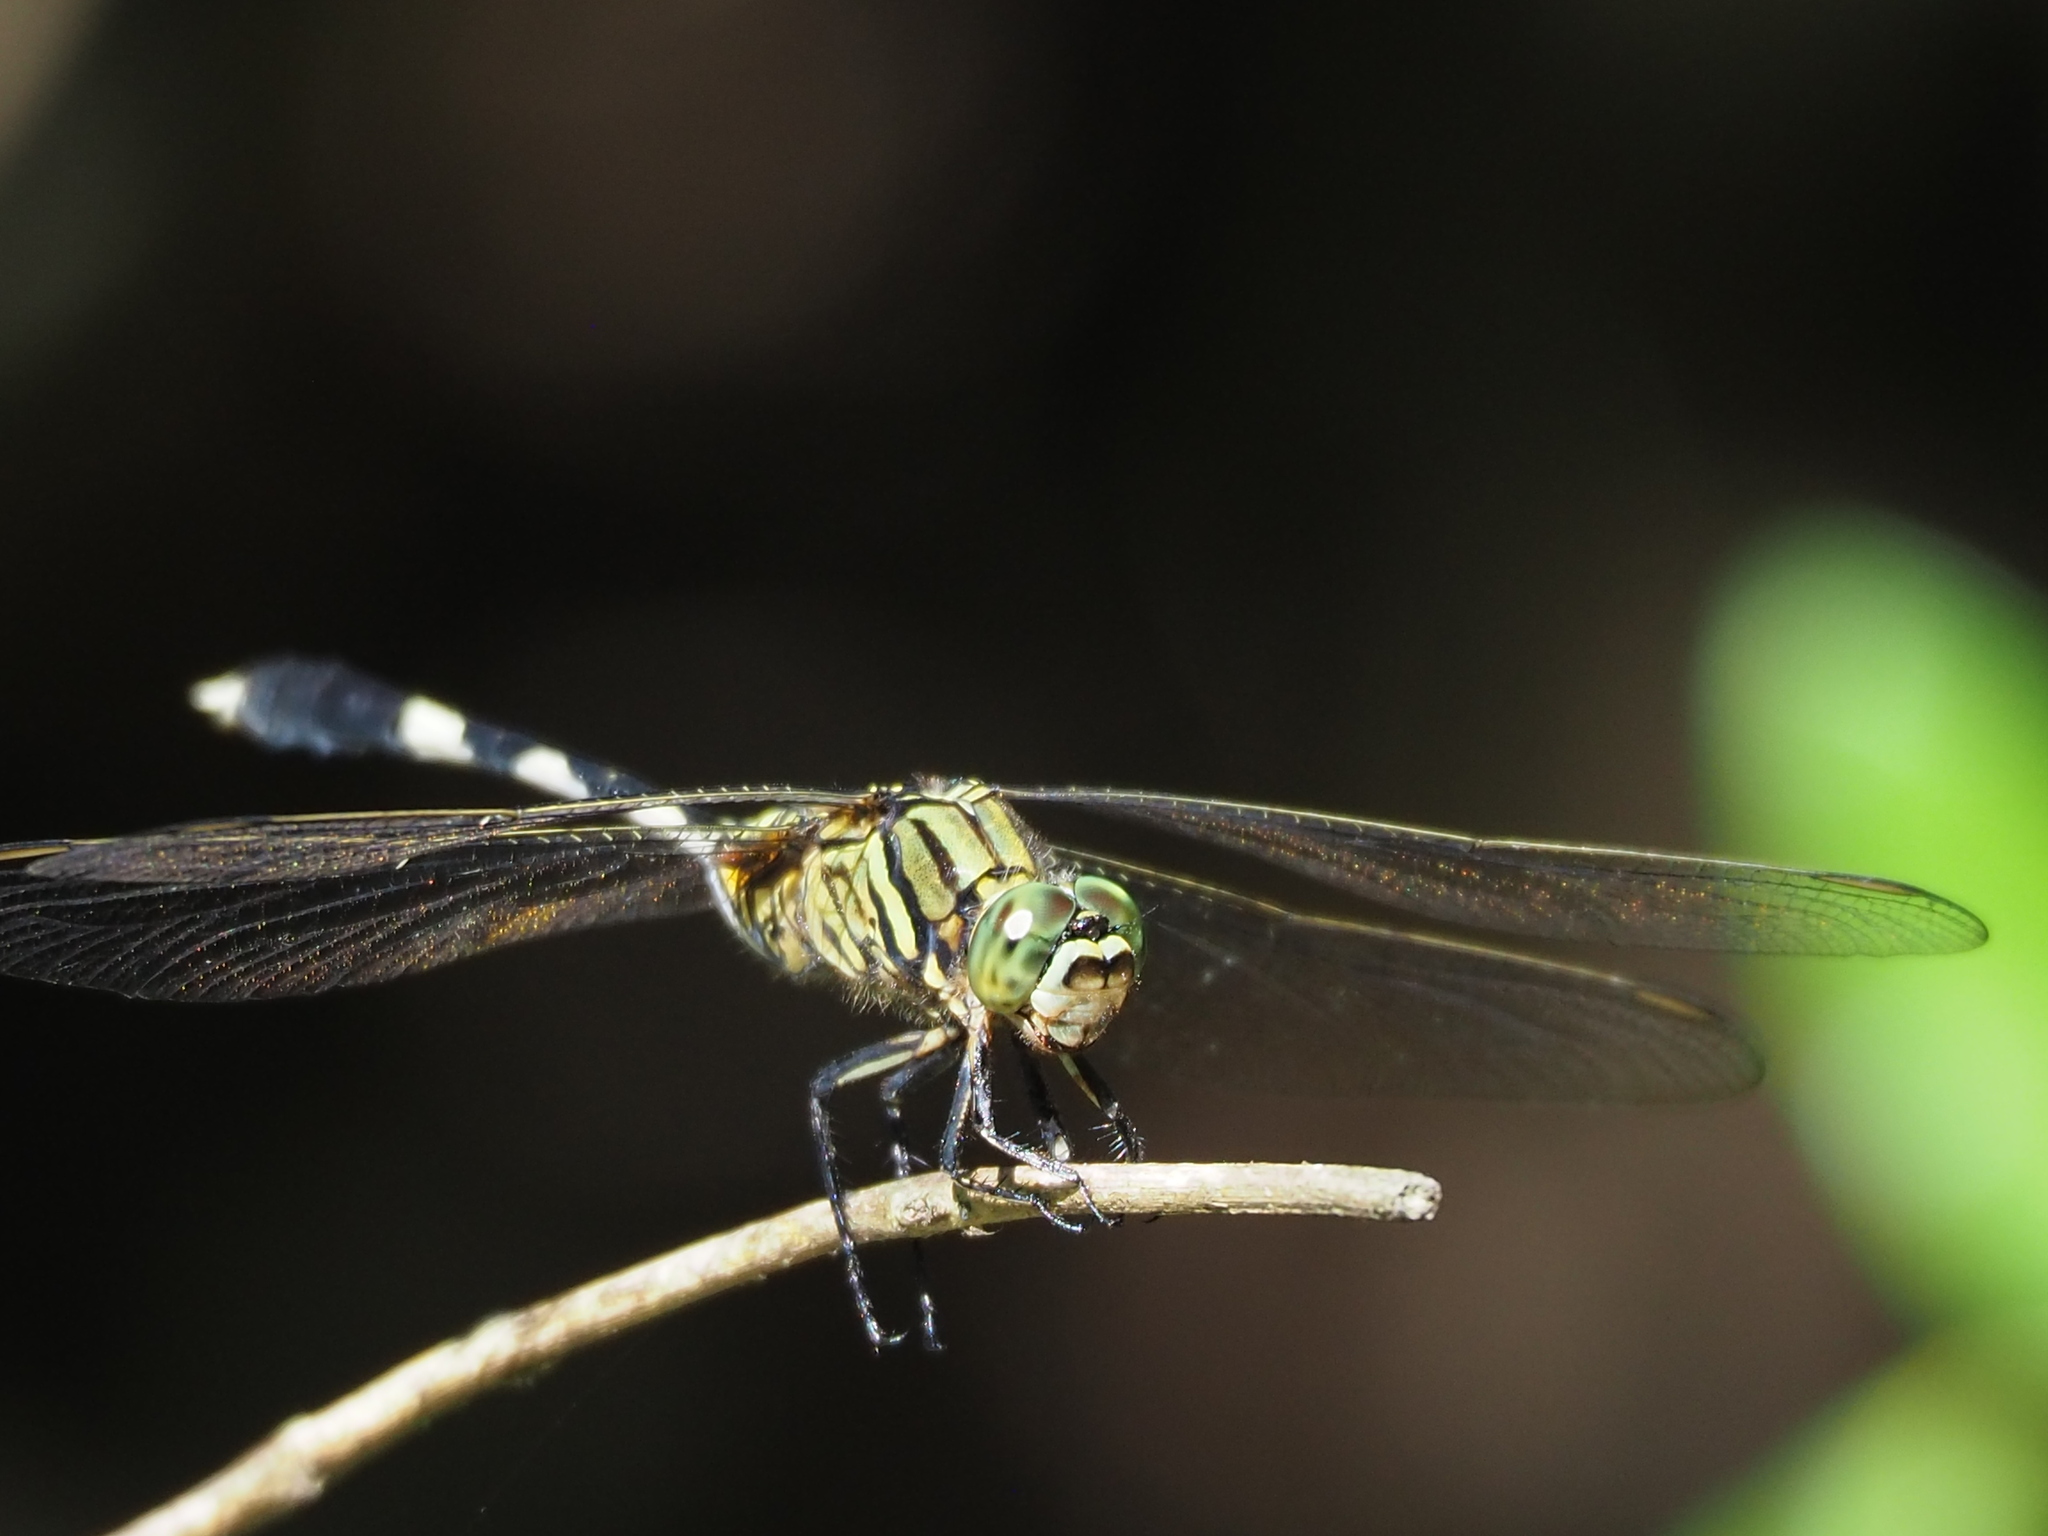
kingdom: Animalia
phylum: Arthropoda
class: Insecta
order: Odonata
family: Libellulidae
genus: Orthetrum
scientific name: Orthetrum sabina
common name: Slender skimmer
